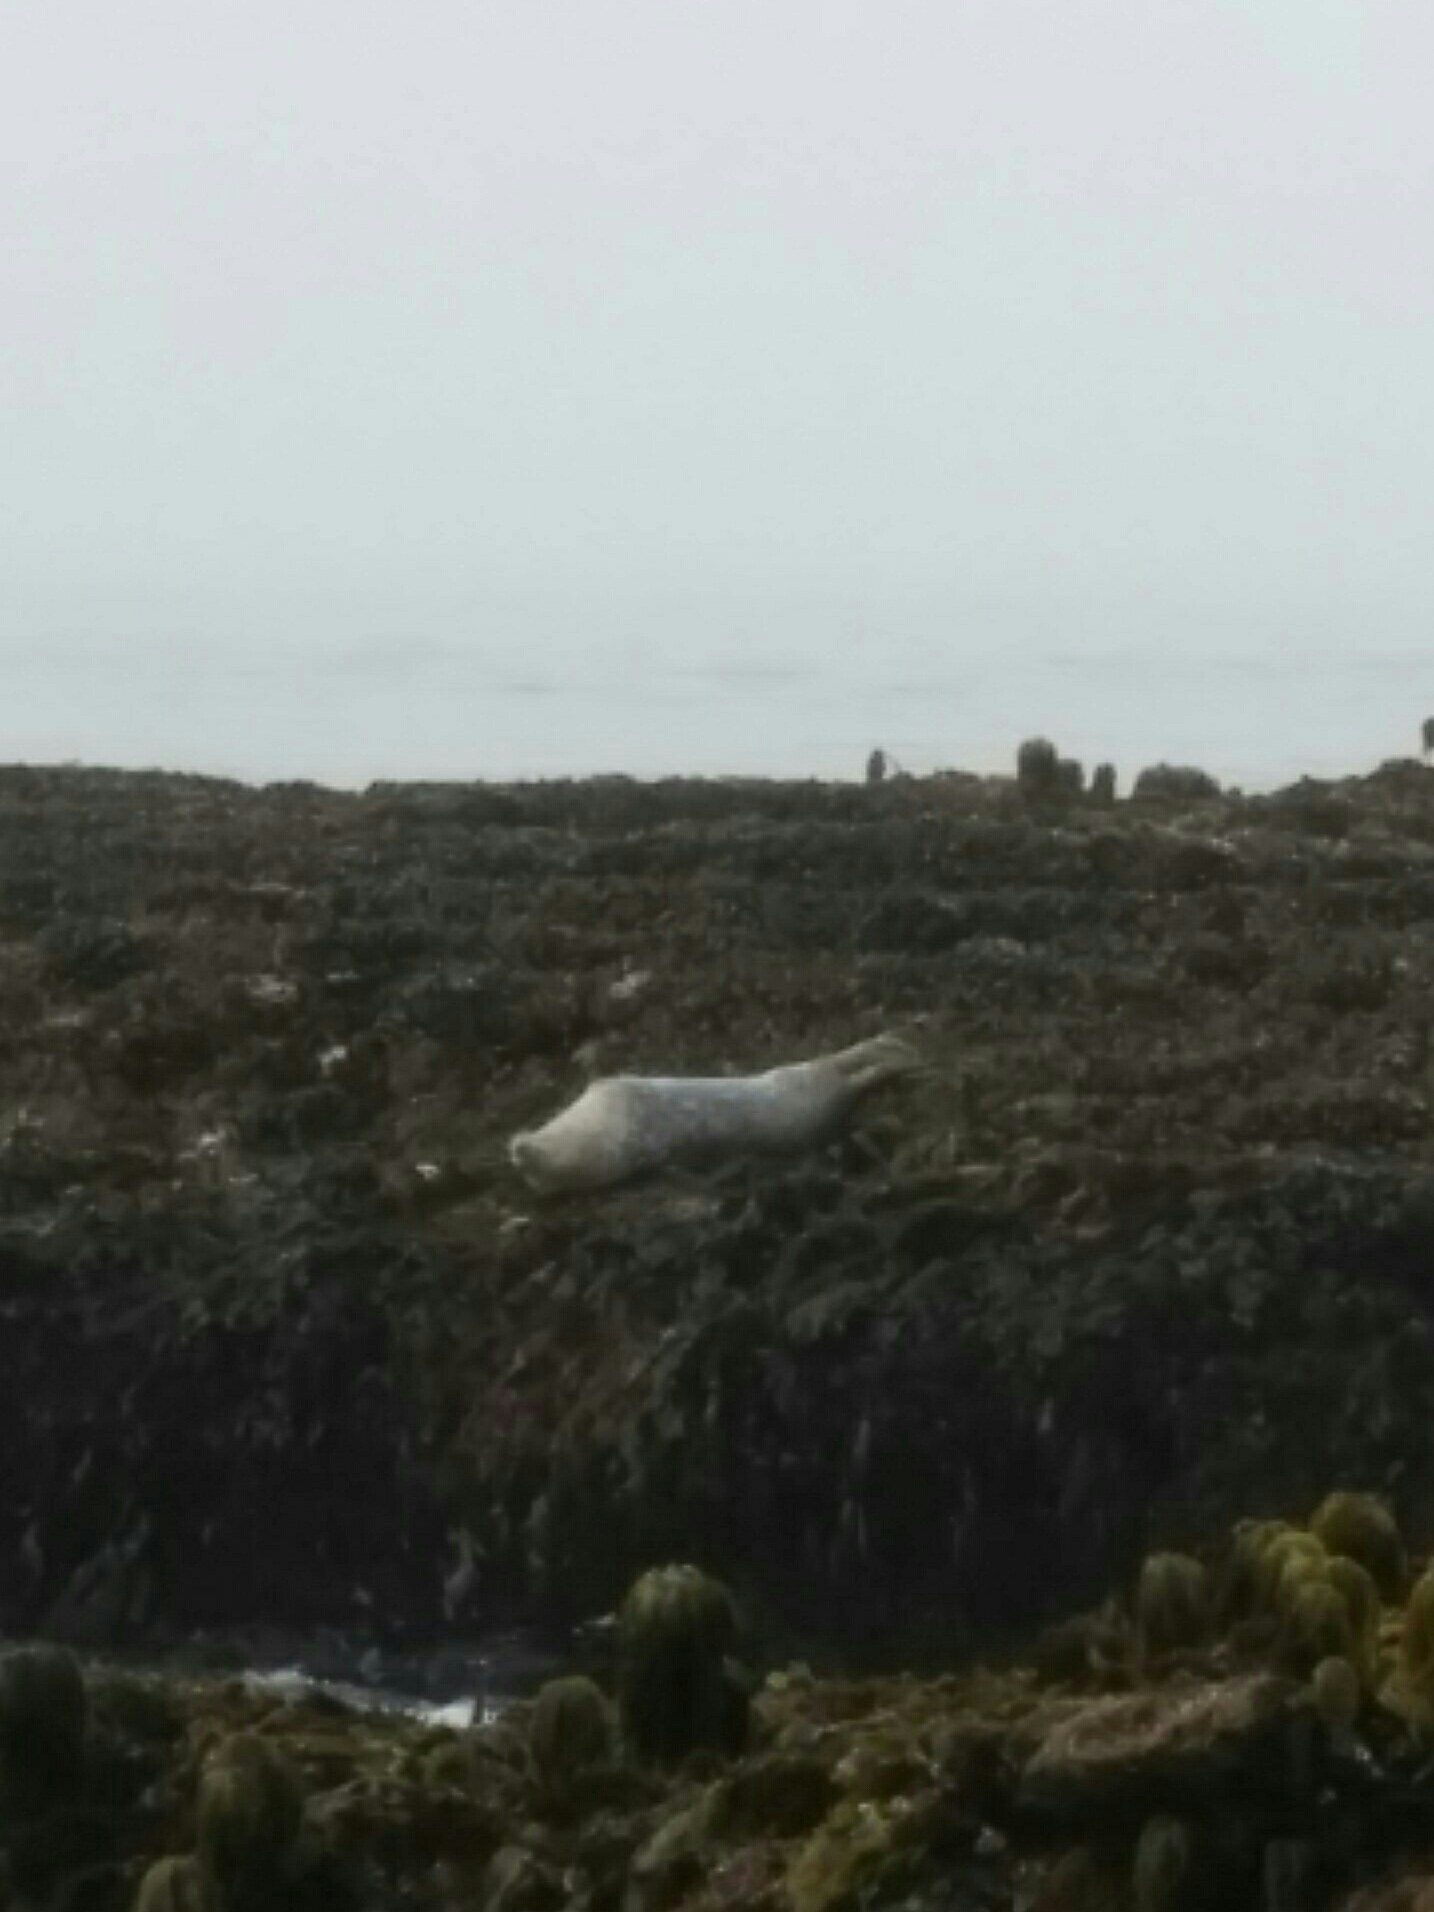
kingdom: Animalia
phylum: Chordata
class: Mammalia
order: Carnivora
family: Phocidae
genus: Phoca
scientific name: Phoca vitulina
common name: Harbor seal
